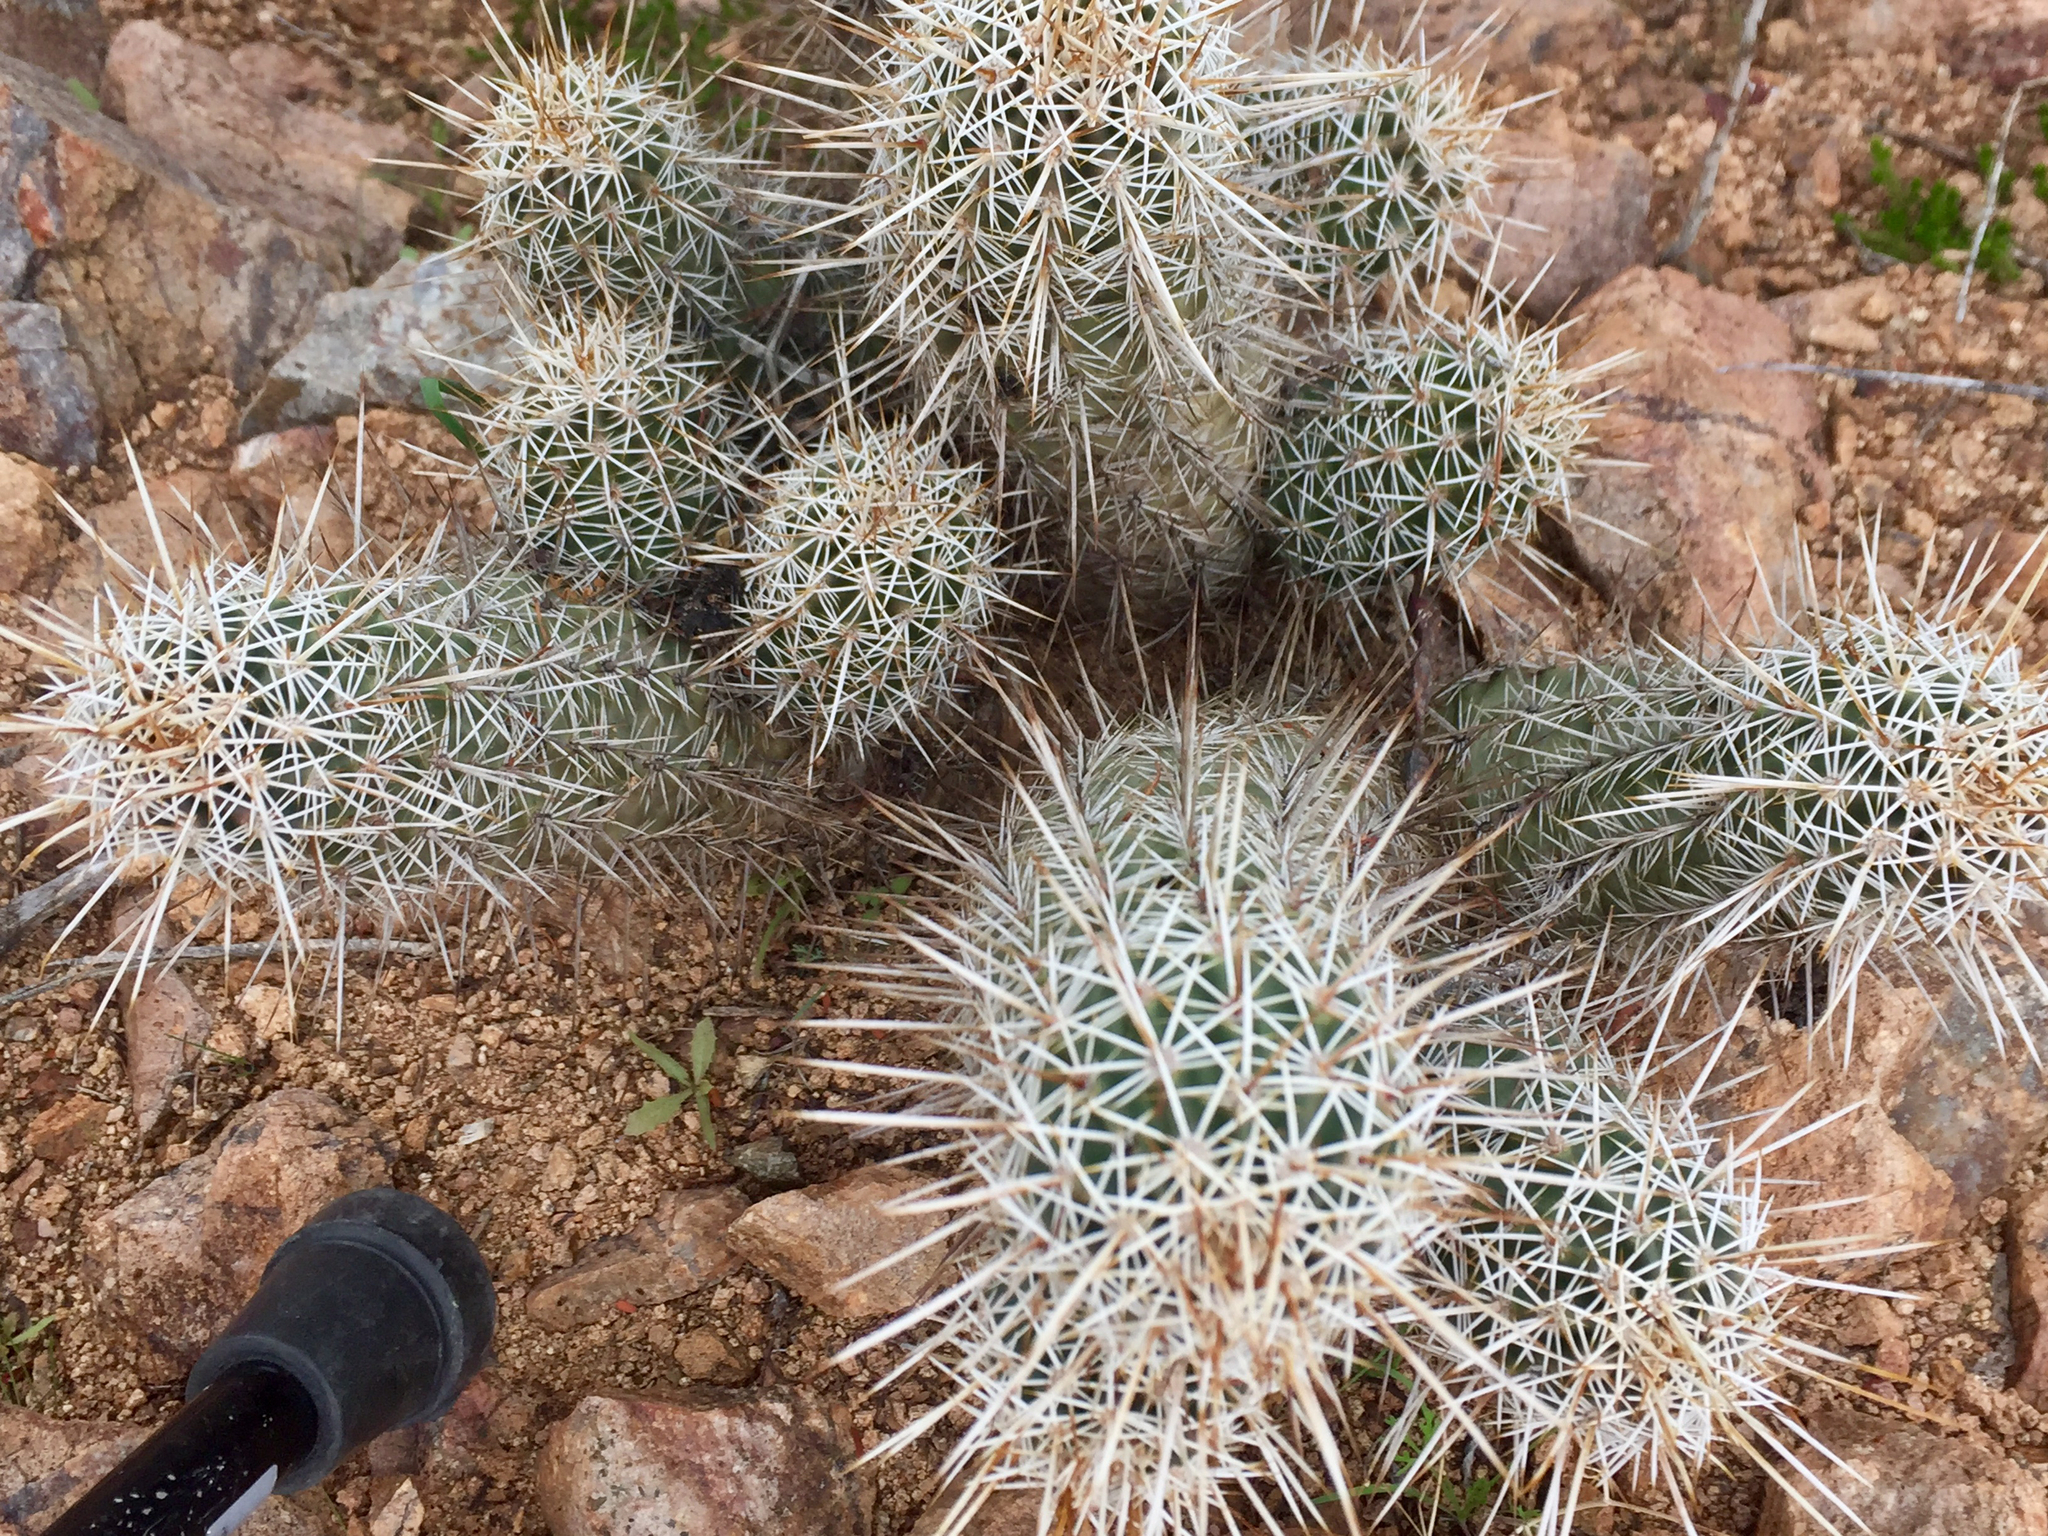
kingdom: Plantae
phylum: Tracheophyta
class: Magnoliopsida
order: Caryophyllales
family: Cactaceae
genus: Echinocereus
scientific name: Echinocereus fasciculatus
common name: Bundle hedgehog
